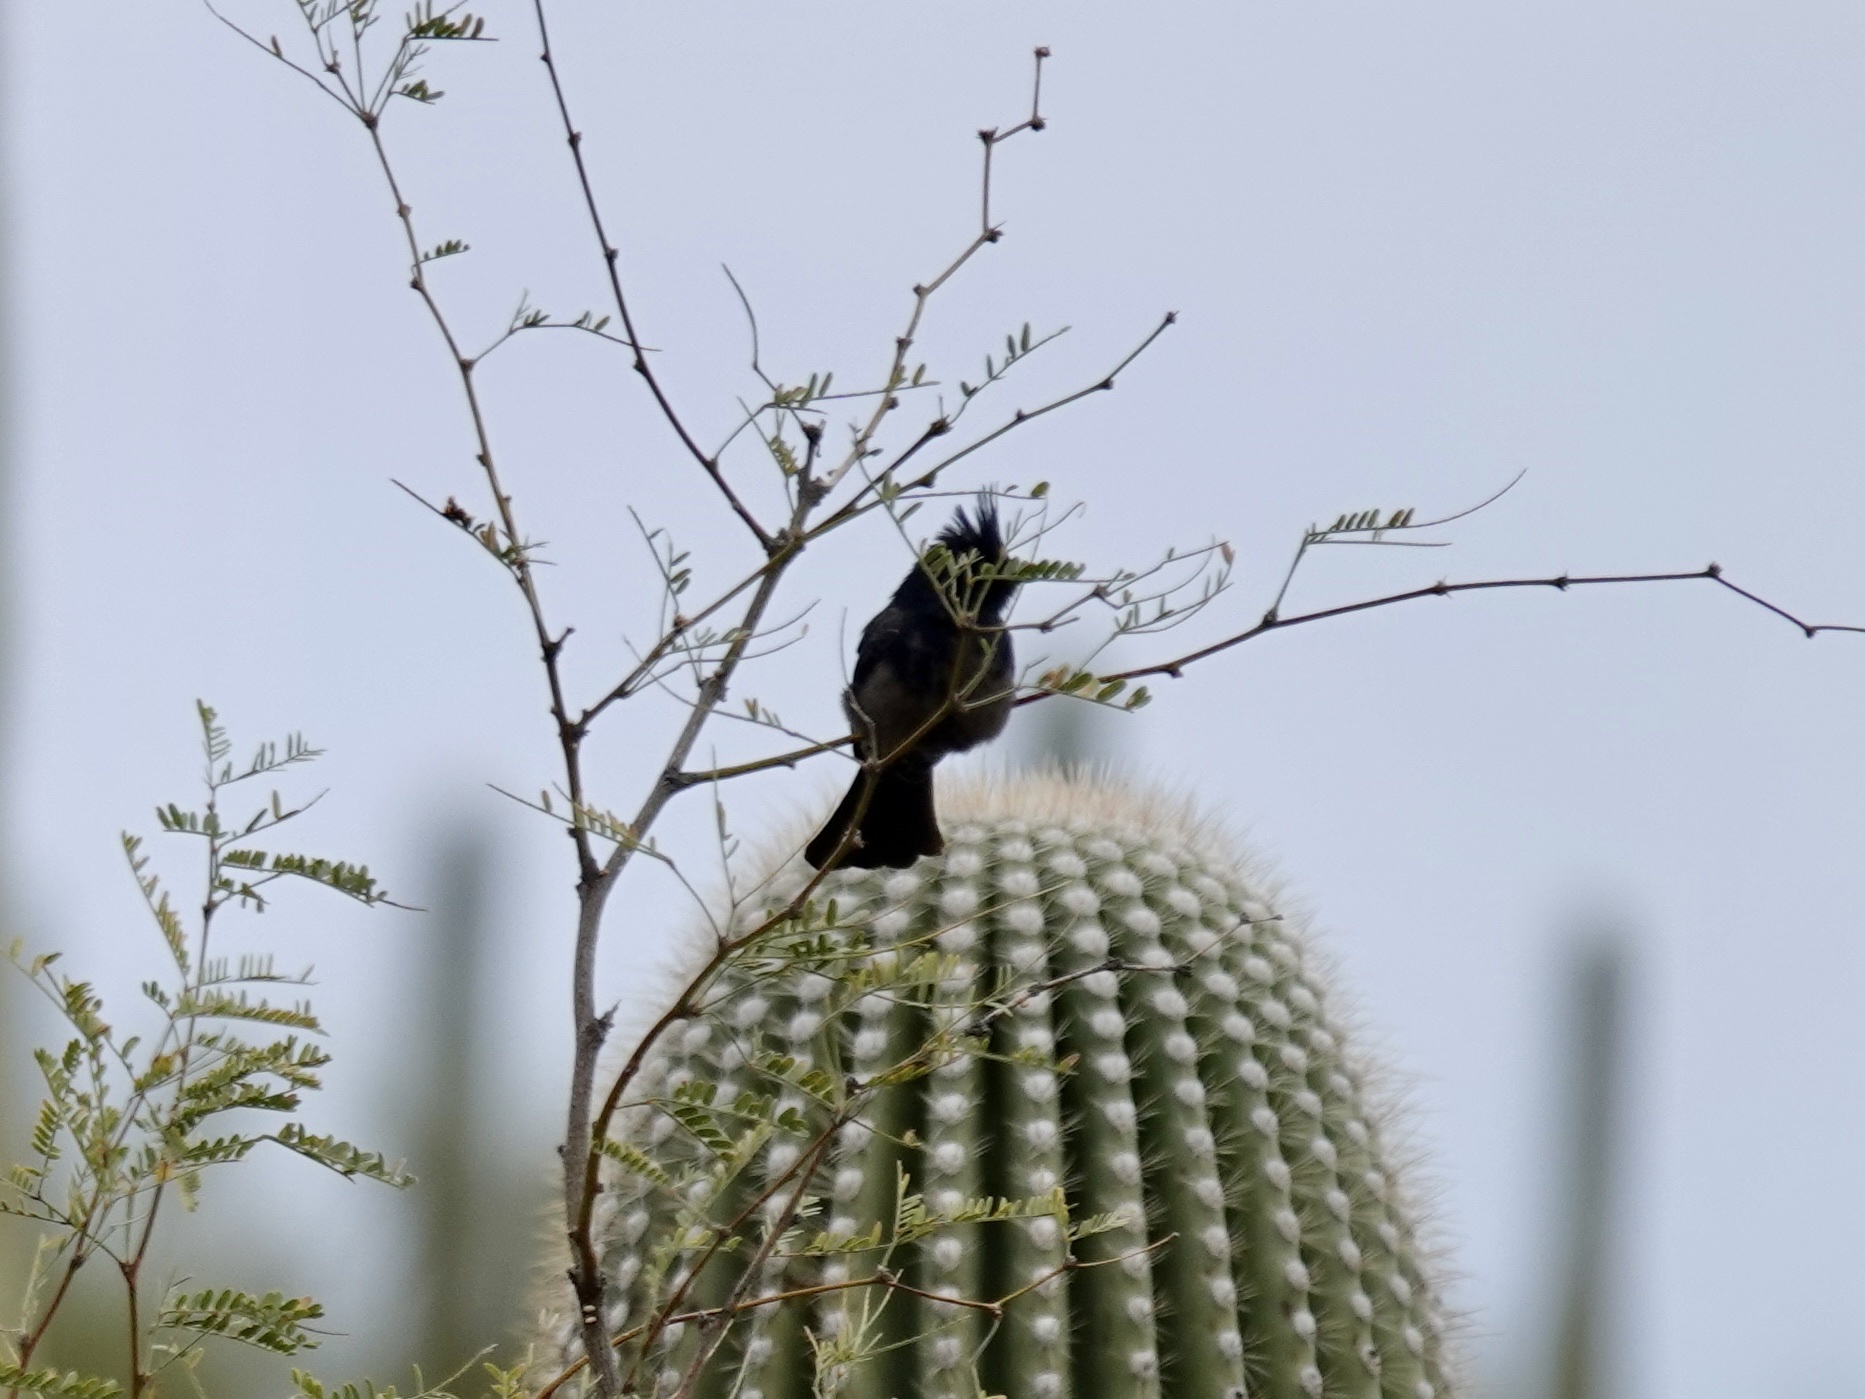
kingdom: Animalia
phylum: Chordata
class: Aves
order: Passeriformes
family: Ptilogonatidae
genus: Phainopepla
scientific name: Phainopepla nitens
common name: Phainopepla
